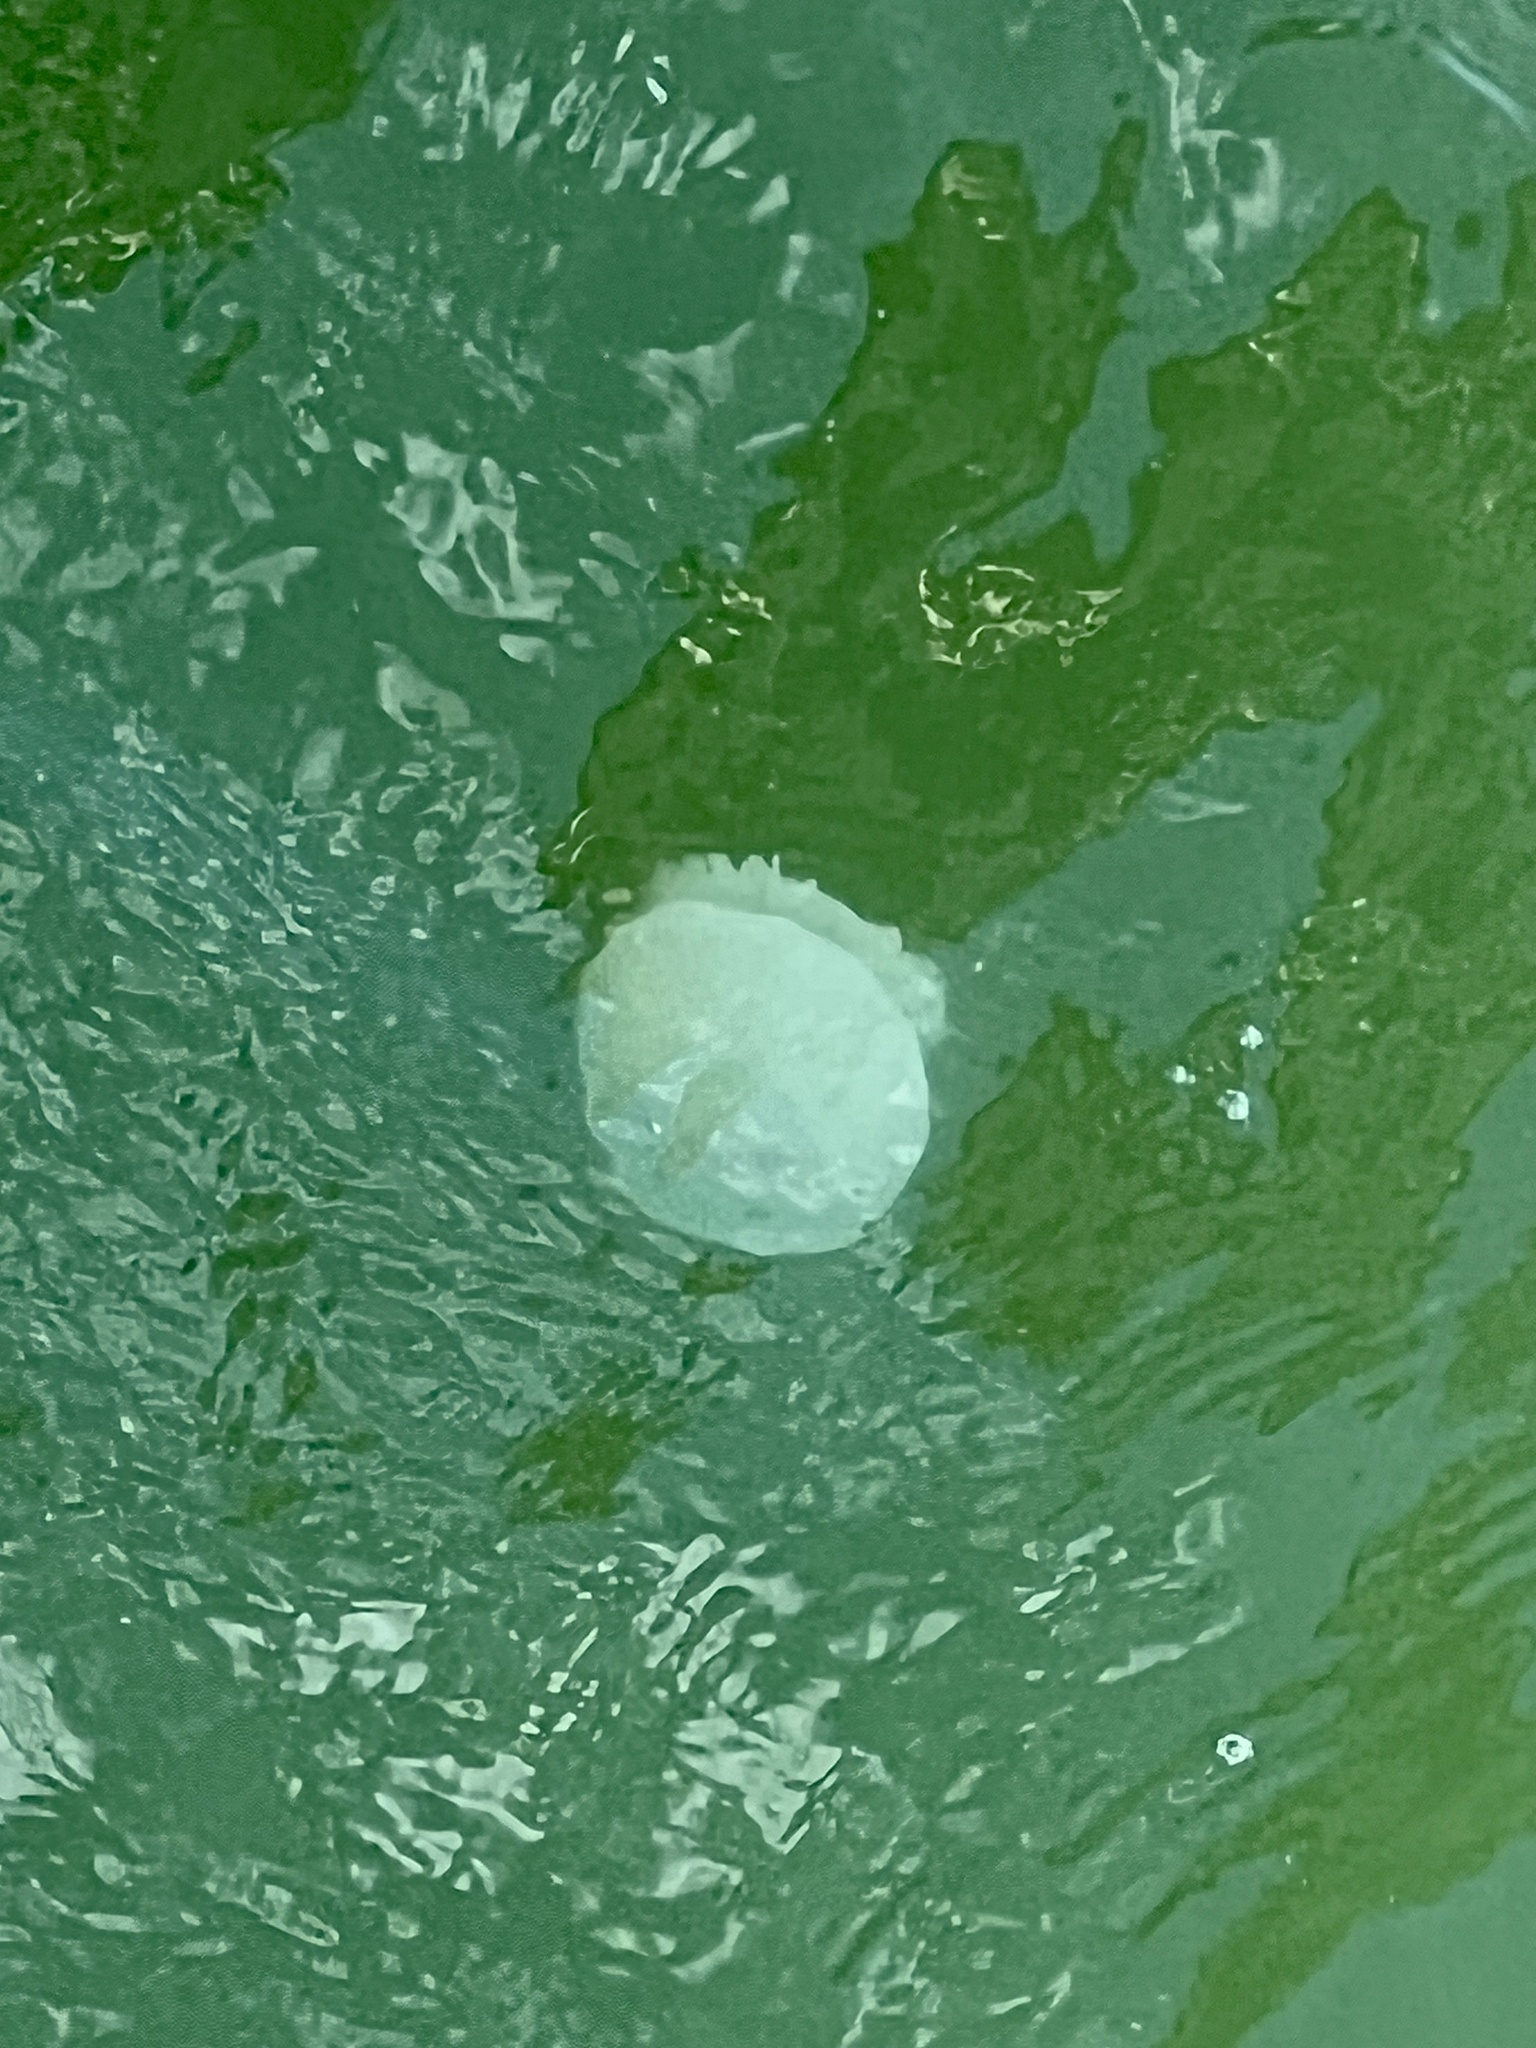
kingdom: Animalia
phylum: Cnidaria
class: Scyphozoa
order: Rhizostomeae
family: Stomolophidae
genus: Stomolophus
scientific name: Stomolophus meleagris
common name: Cabbagehead
